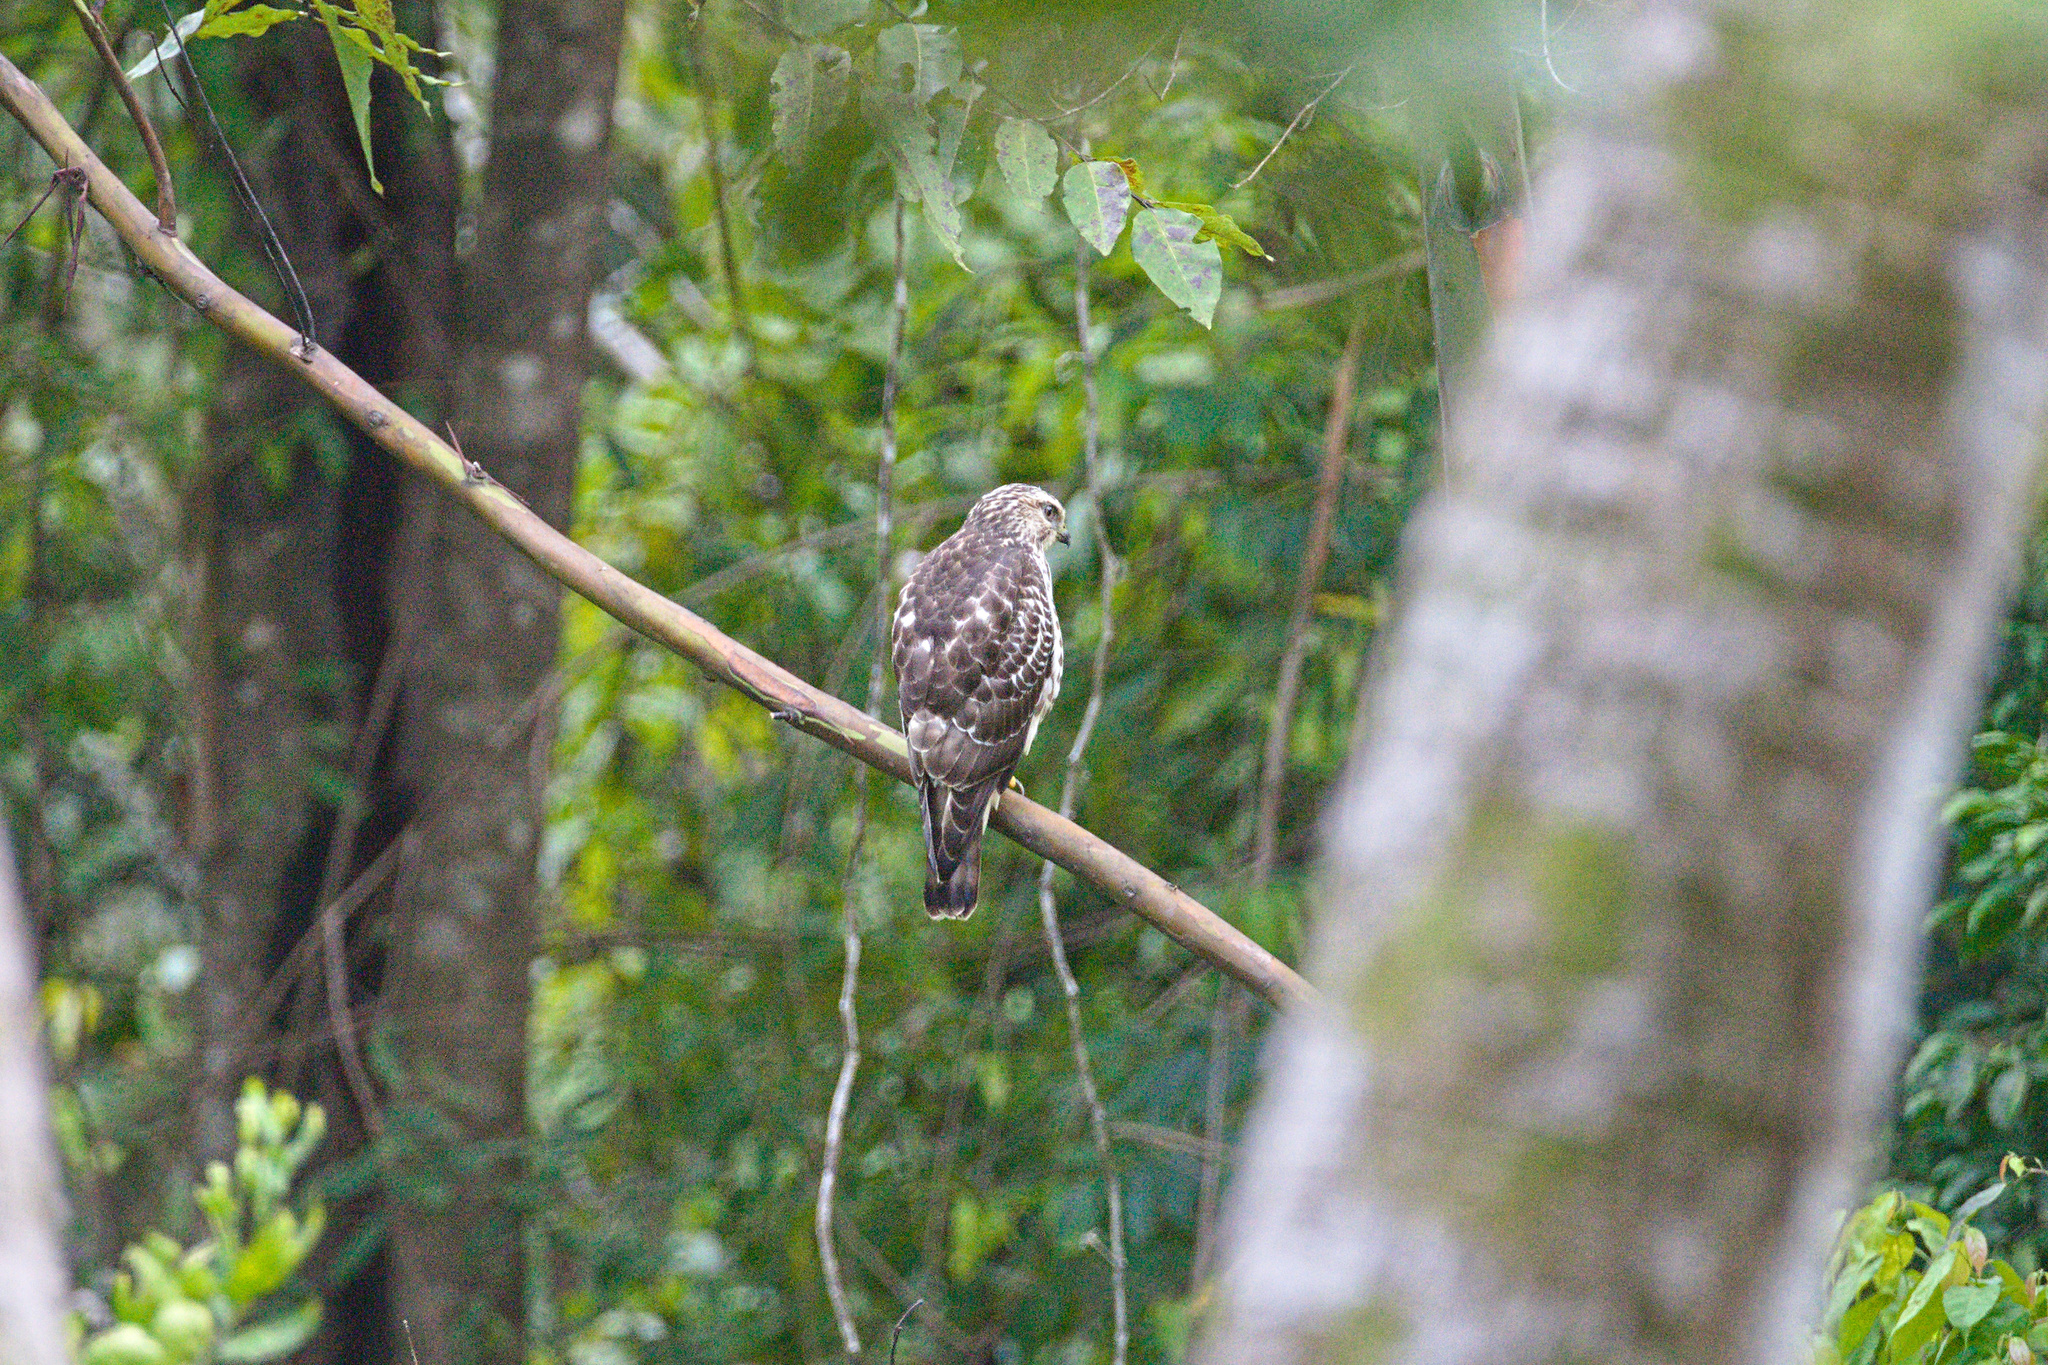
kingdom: Animalia
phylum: Chordata
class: Aves
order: Accipitriformes
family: Accipitridae
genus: Buteo
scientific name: Buteo platypterus
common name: Broad-winged hawk
